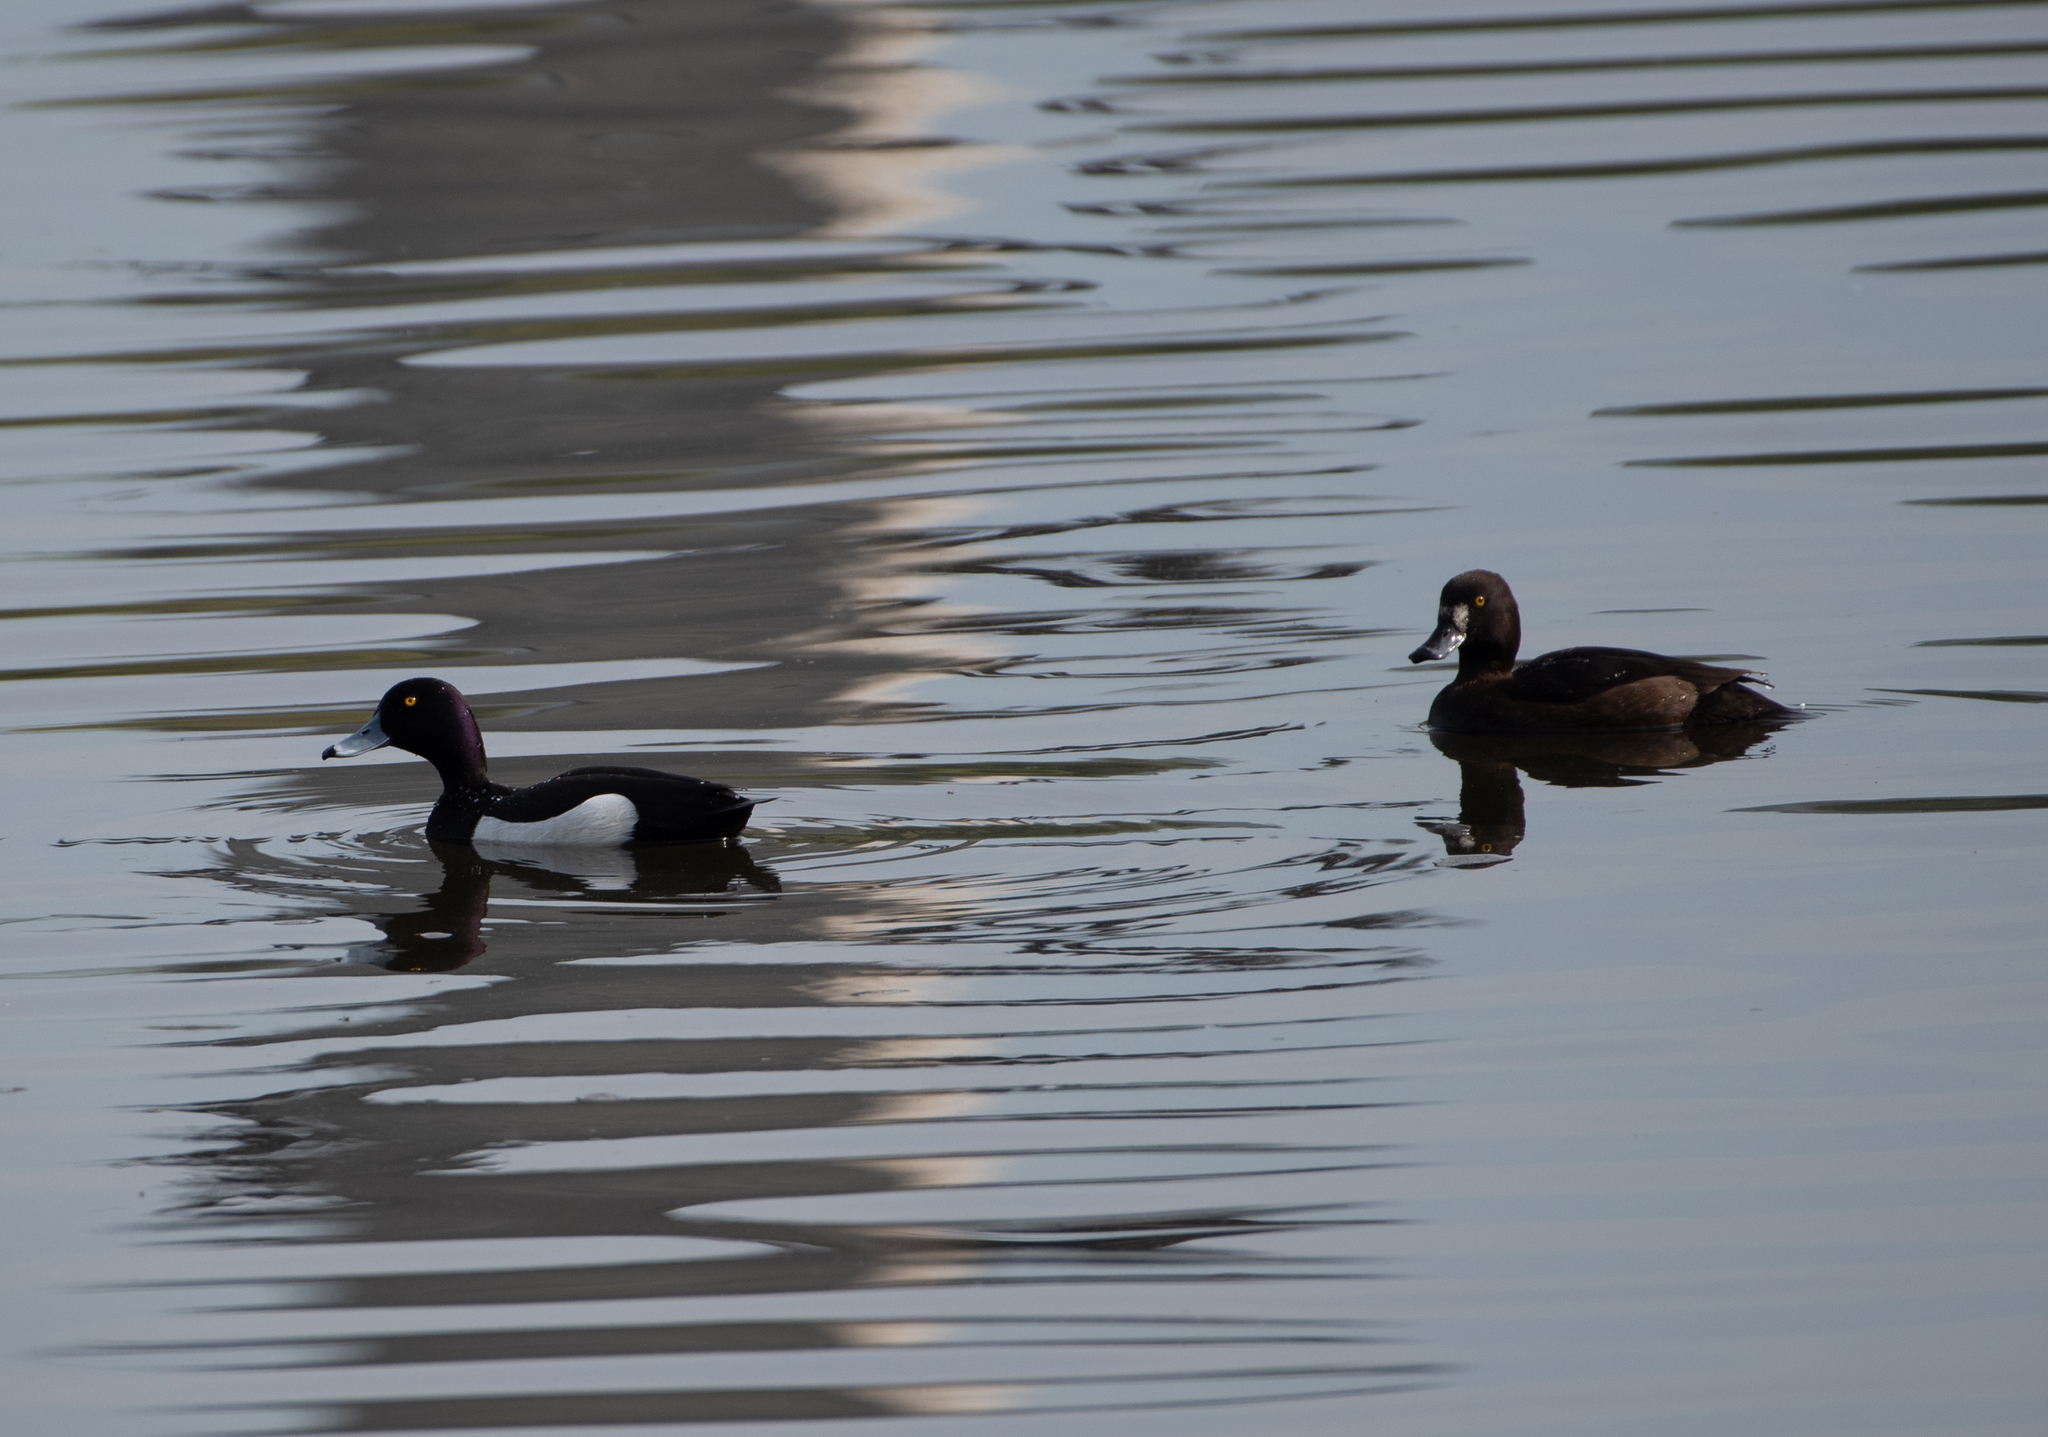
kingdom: Animalia
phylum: Chordata
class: Aves
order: Anseriformes
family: Anatidae
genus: Aythya
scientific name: Aythya fuligula
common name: Tufted duck
